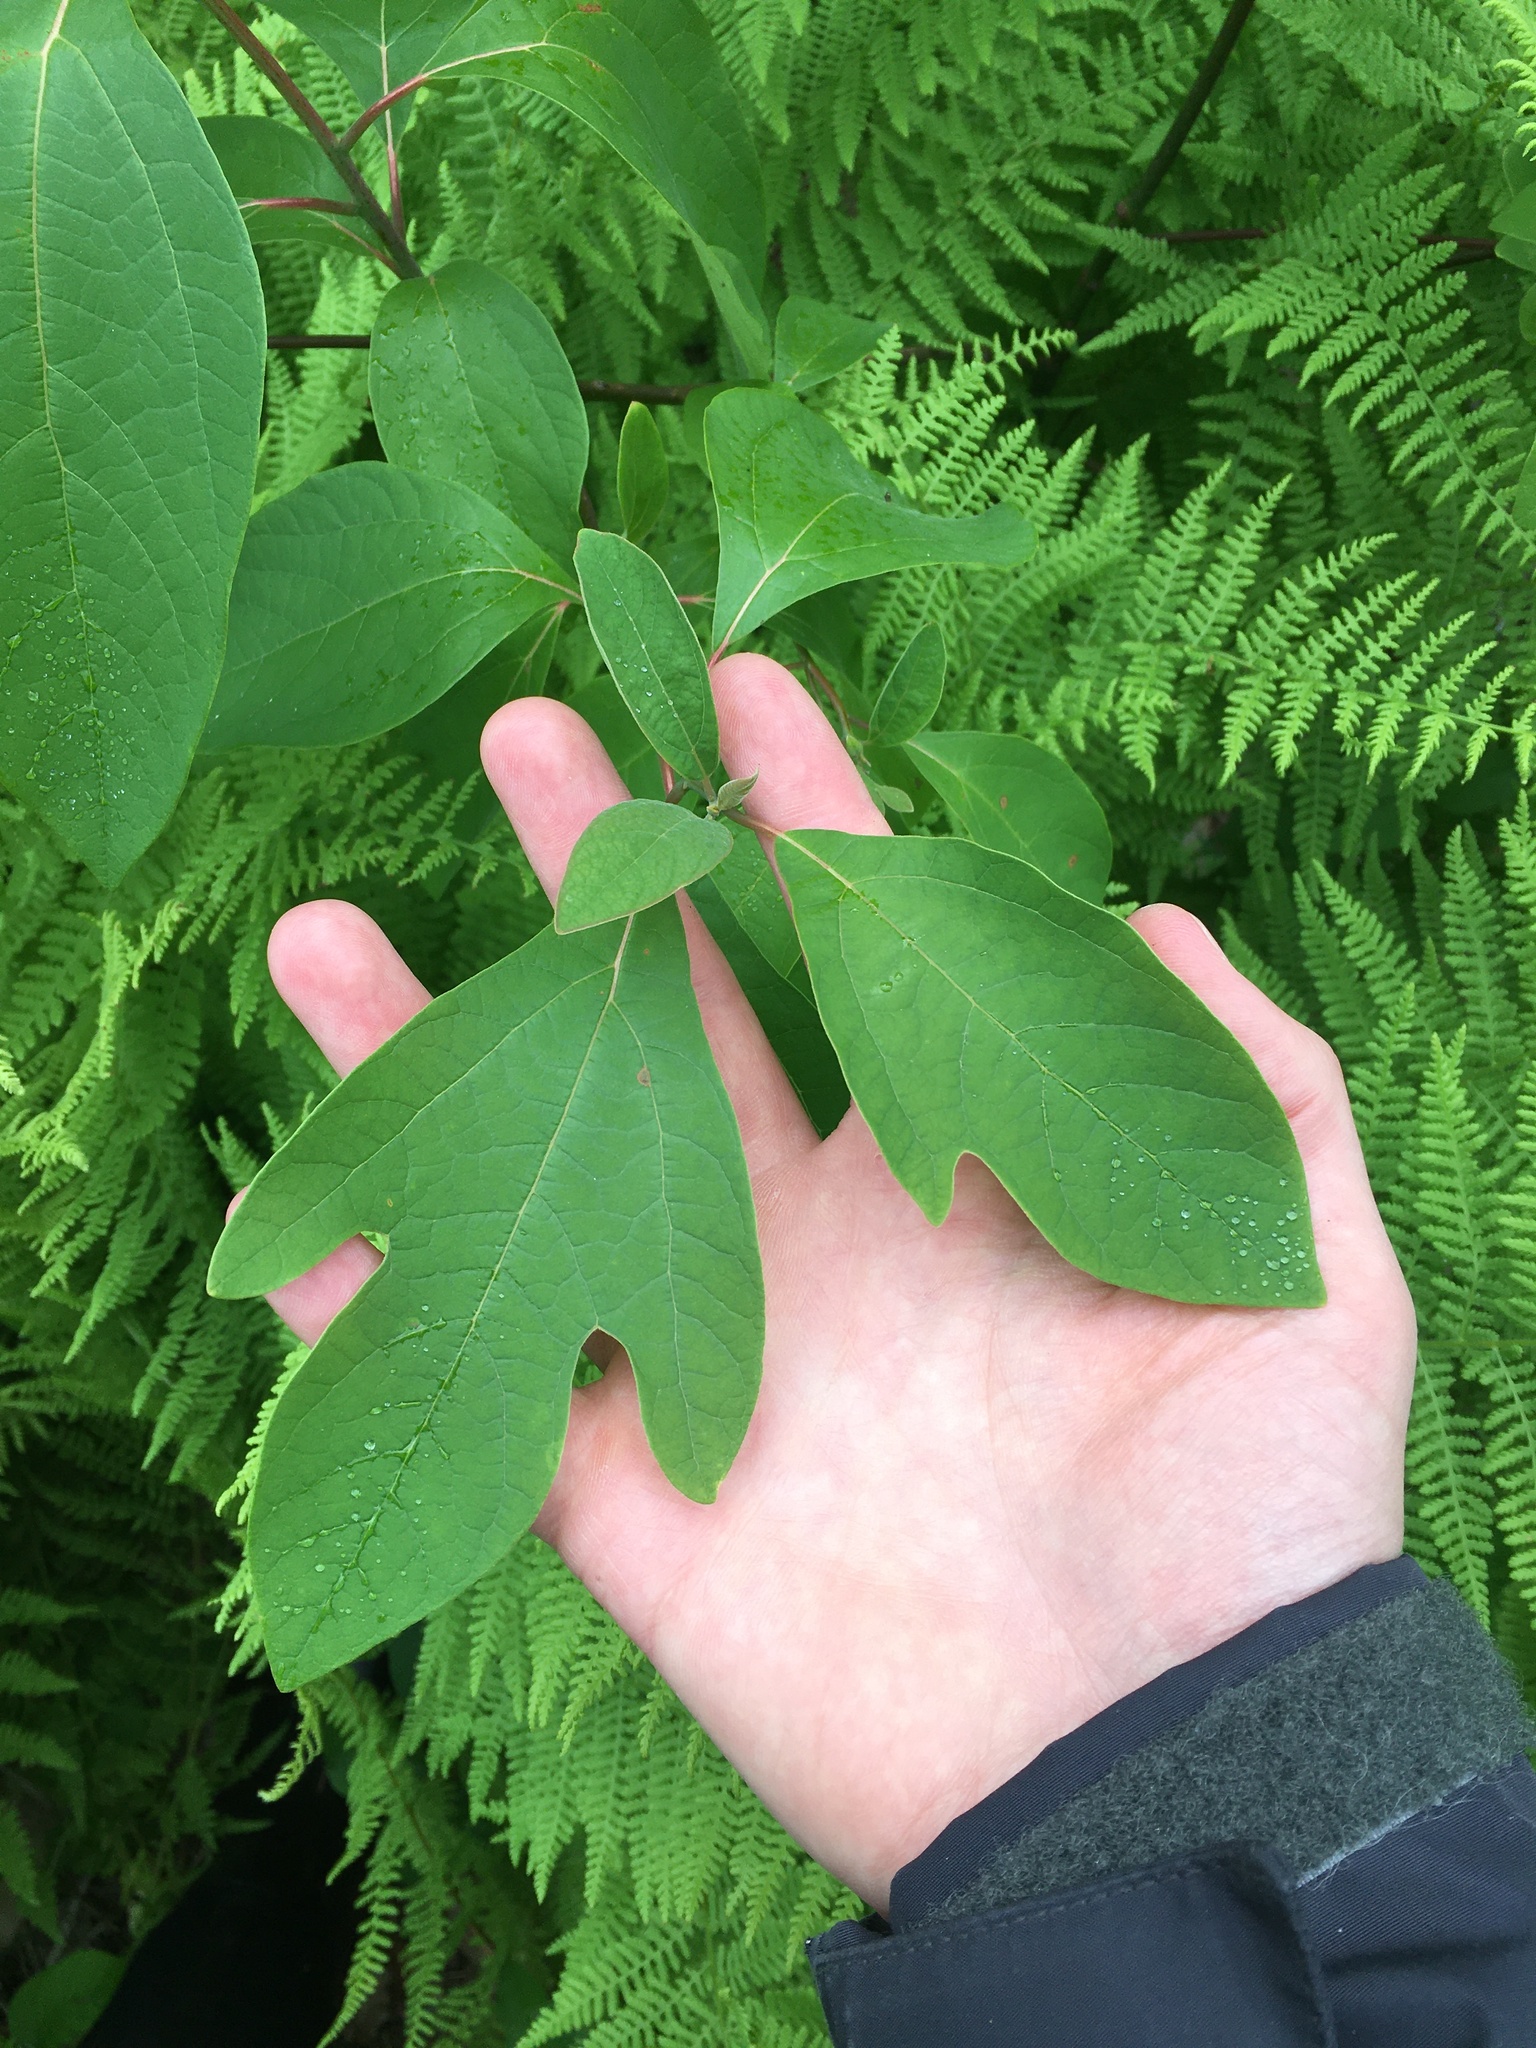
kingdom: Plantae
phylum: Tracheophyta
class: Magnoliopsida
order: Laurales
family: Lauraceae
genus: Sassafras
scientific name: Sassafras albidum
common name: Sassafras
